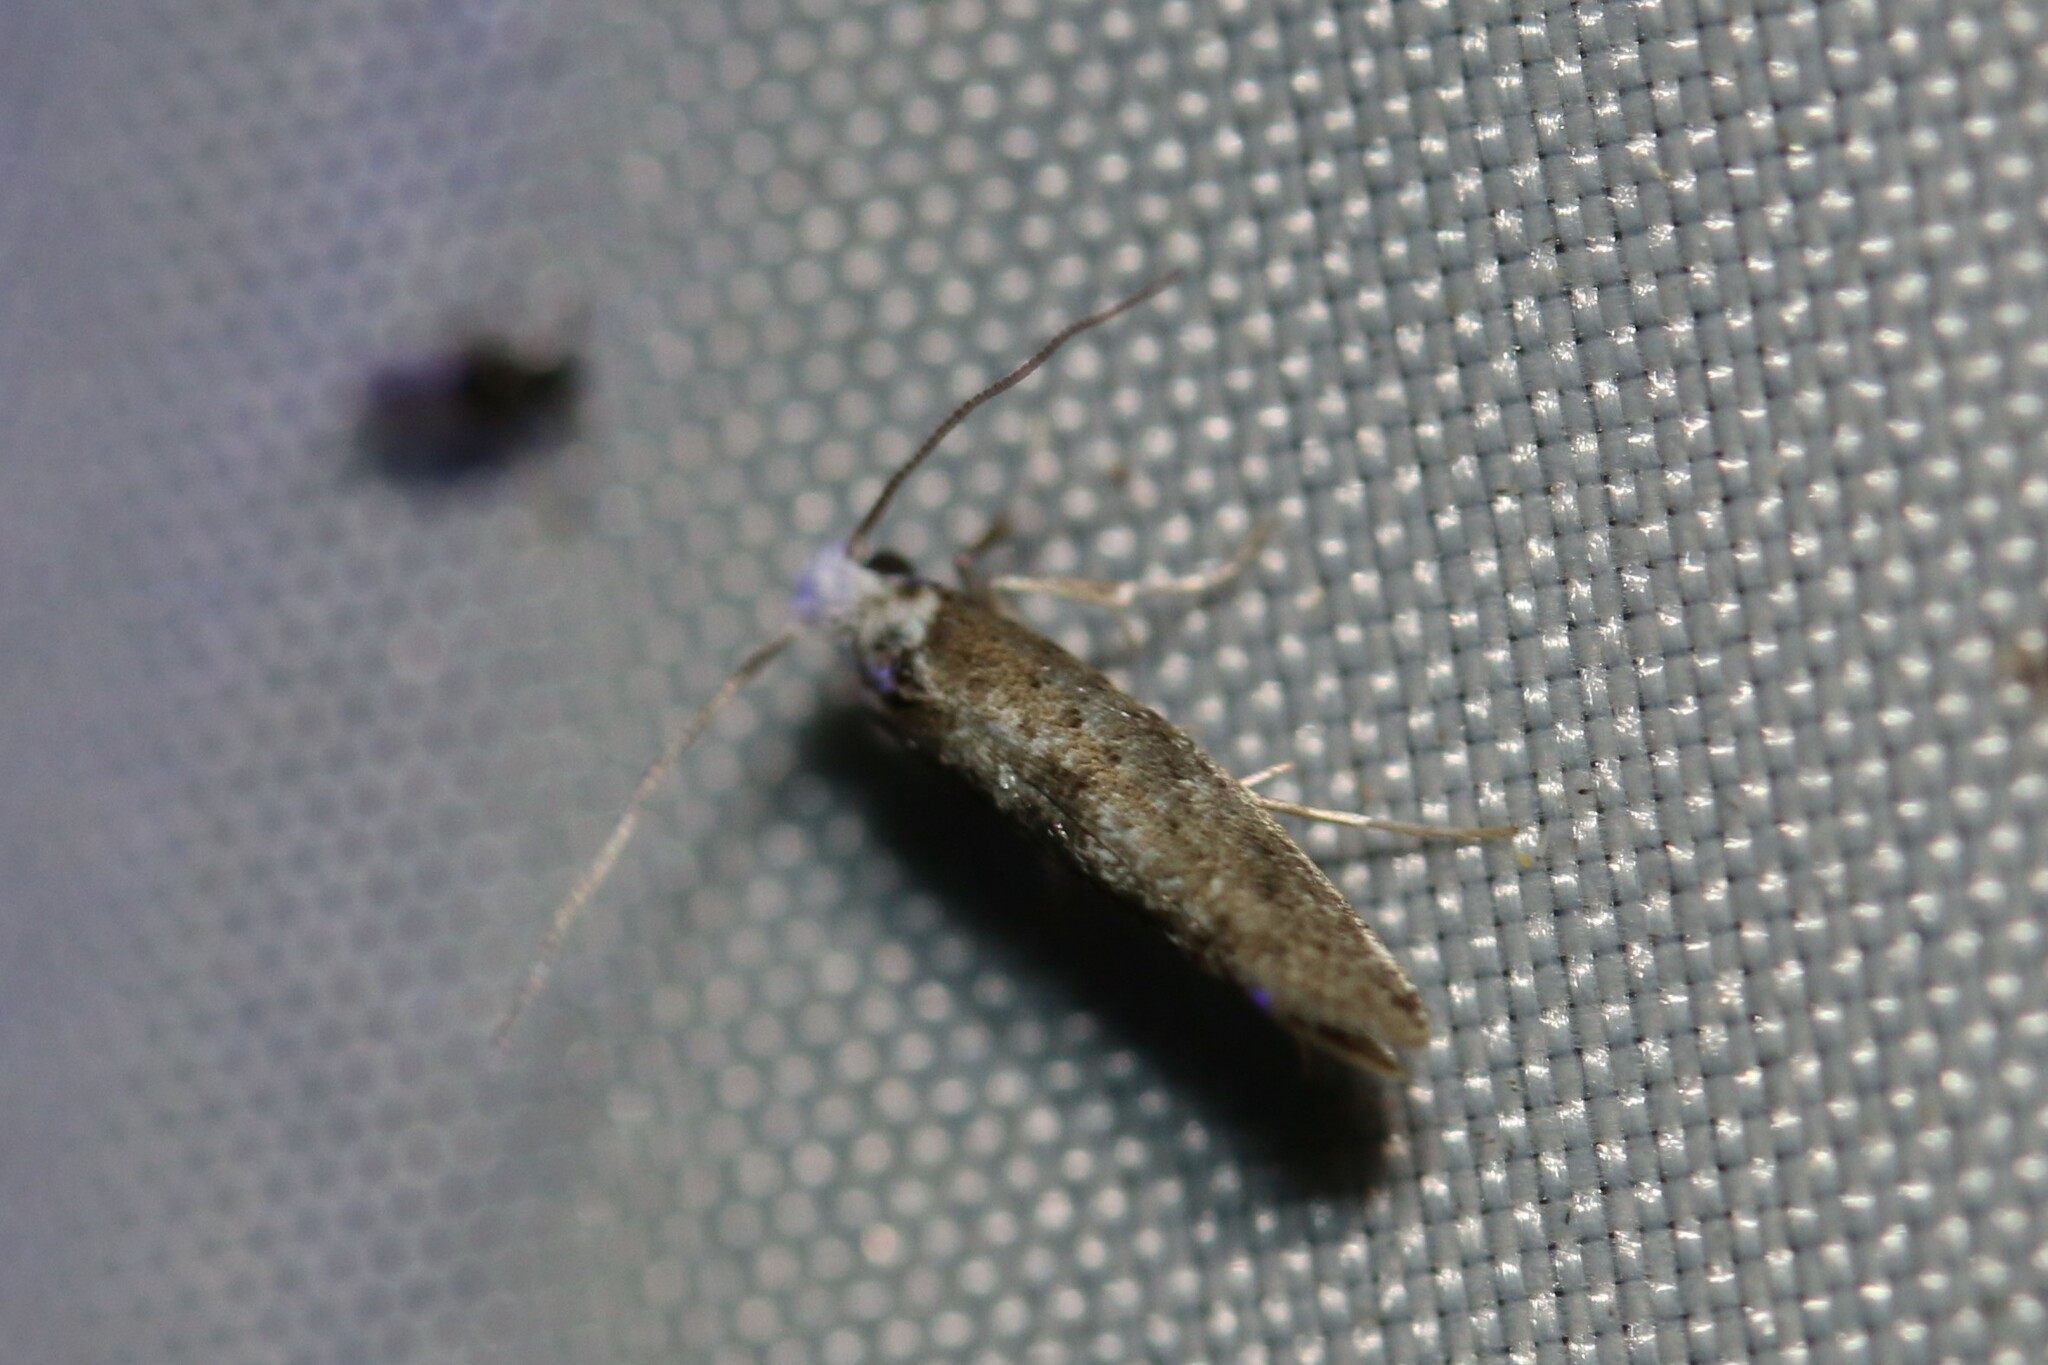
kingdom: Animalia
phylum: Arthropoda
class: Insecta
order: Lepidoptera
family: Yponomeutidae
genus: Paraswammerdamia
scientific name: Paraswammerdamia albicapitella
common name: White-headed ermel
